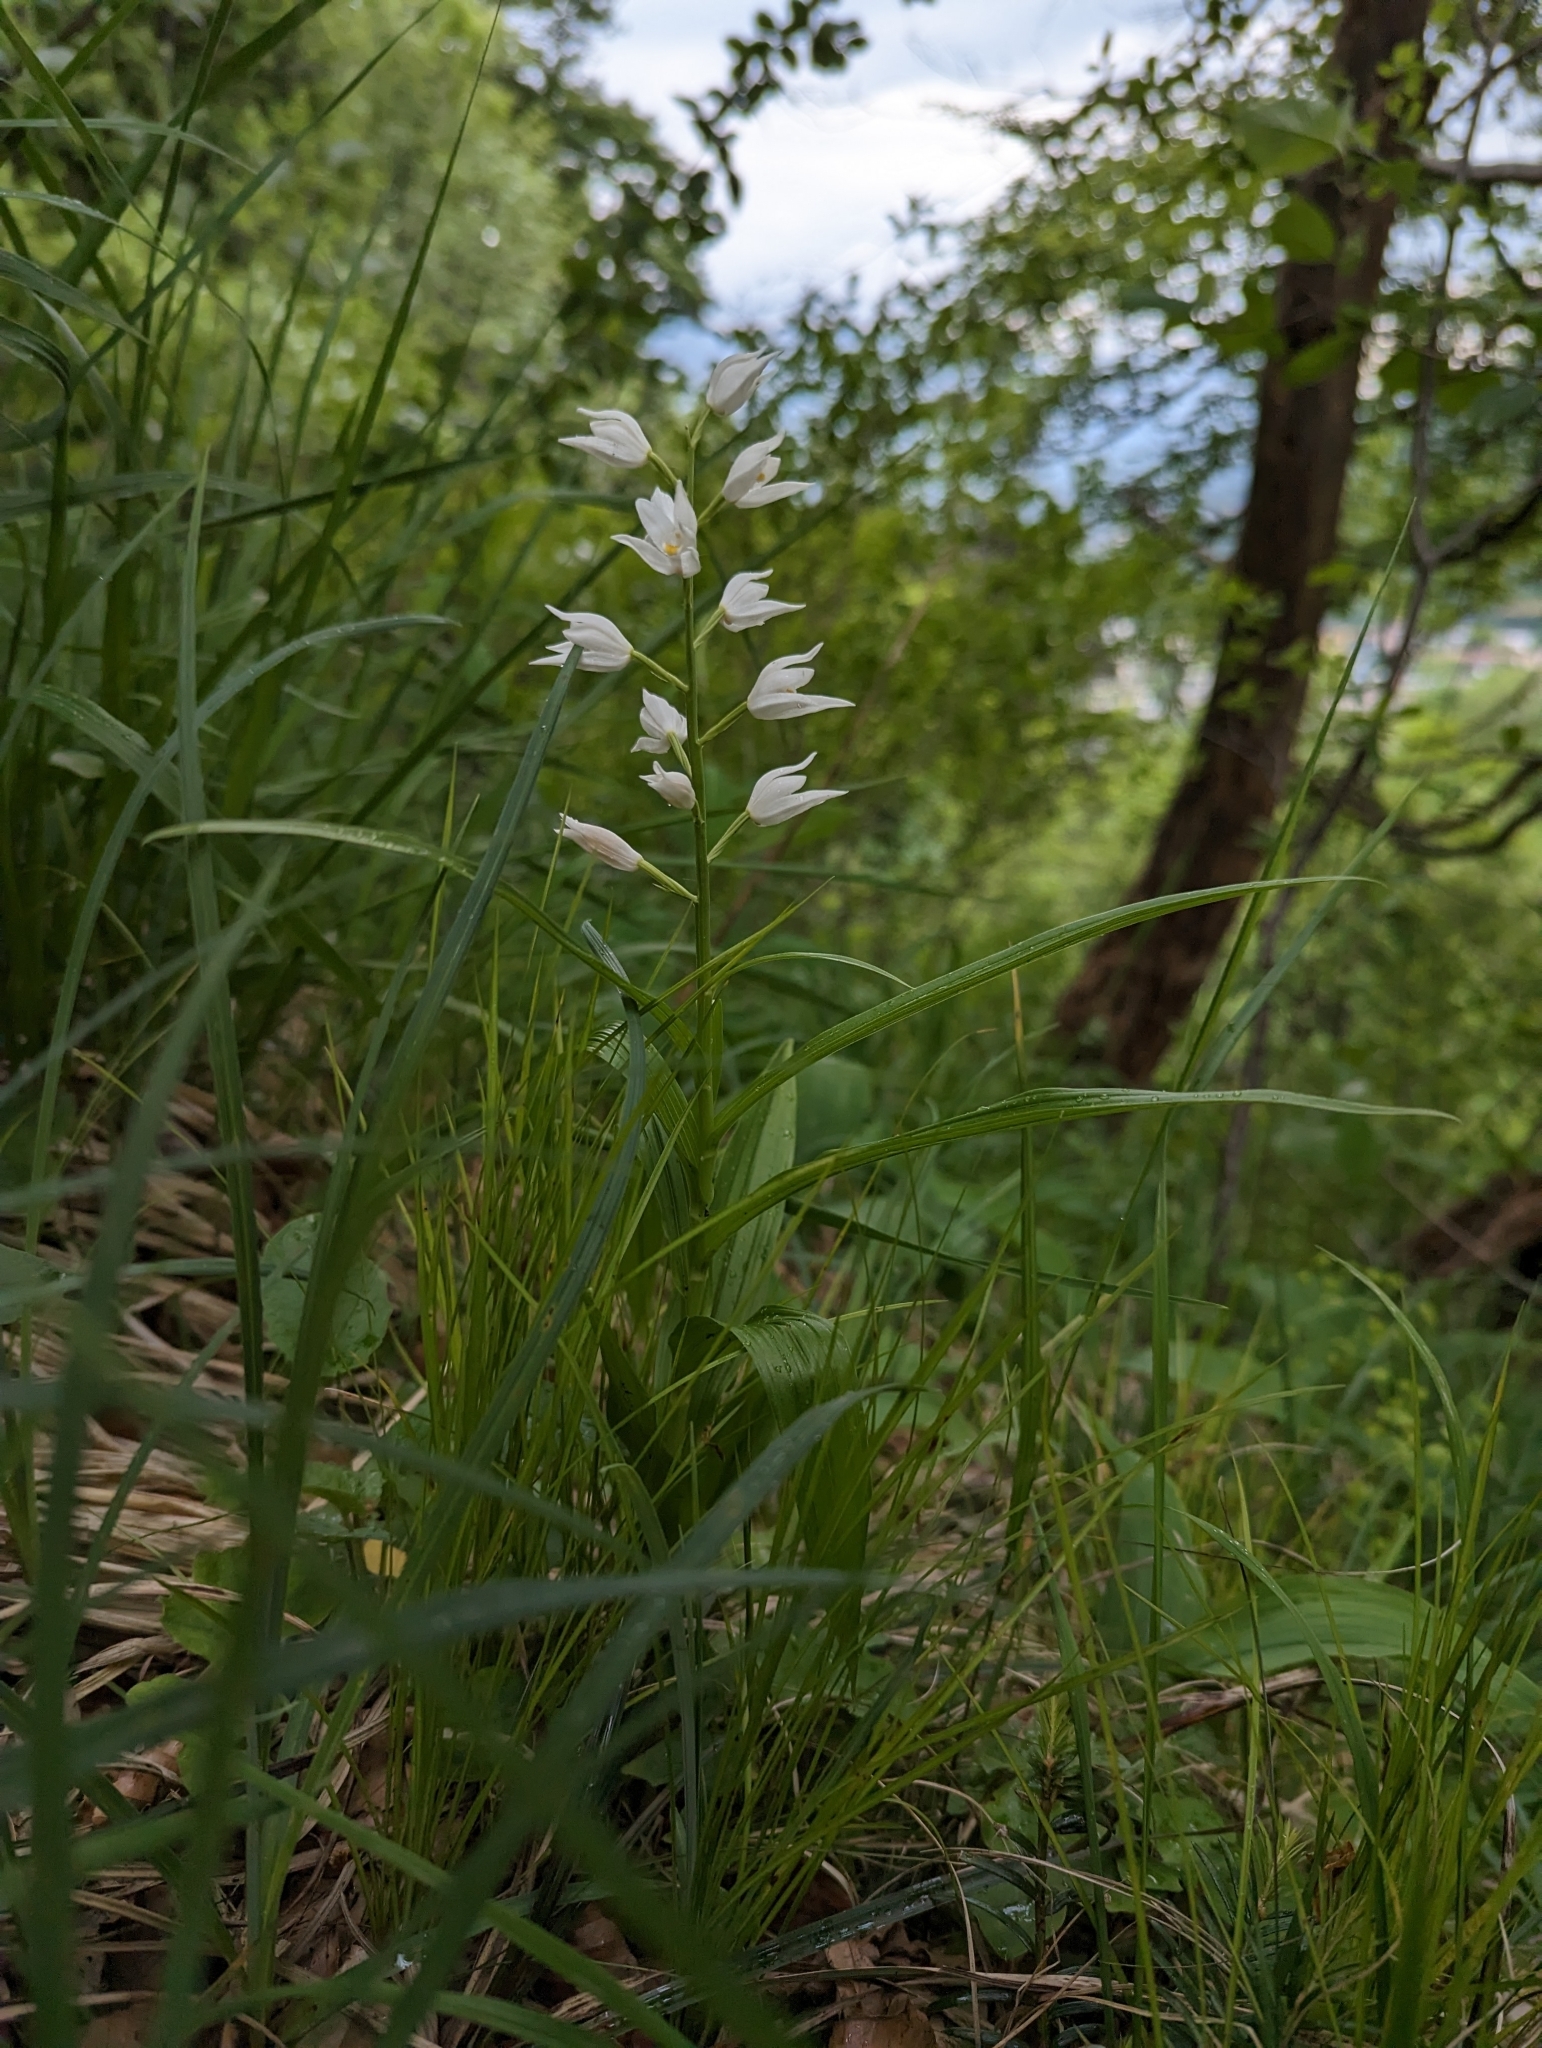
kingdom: Plantae
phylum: Tracheophyta
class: Liliopsida
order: Asparagales
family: Orchidaceae
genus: Cephalanthera
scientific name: Cephalanthera longifolia
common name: Narrow-leaved helleborine
